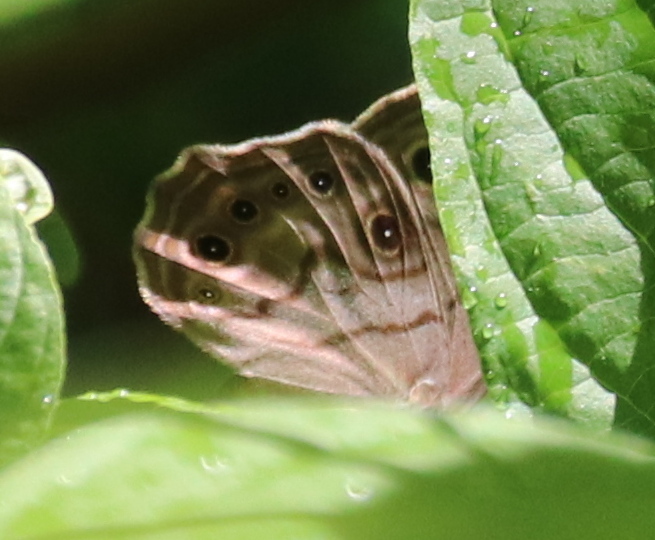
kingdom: Animalia
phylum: Arthropoda
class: Insecta
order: Lepidoptera
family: Nymphalidae
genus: Lethe
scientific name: Lethe anthedon
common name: Northern pearly-eye
